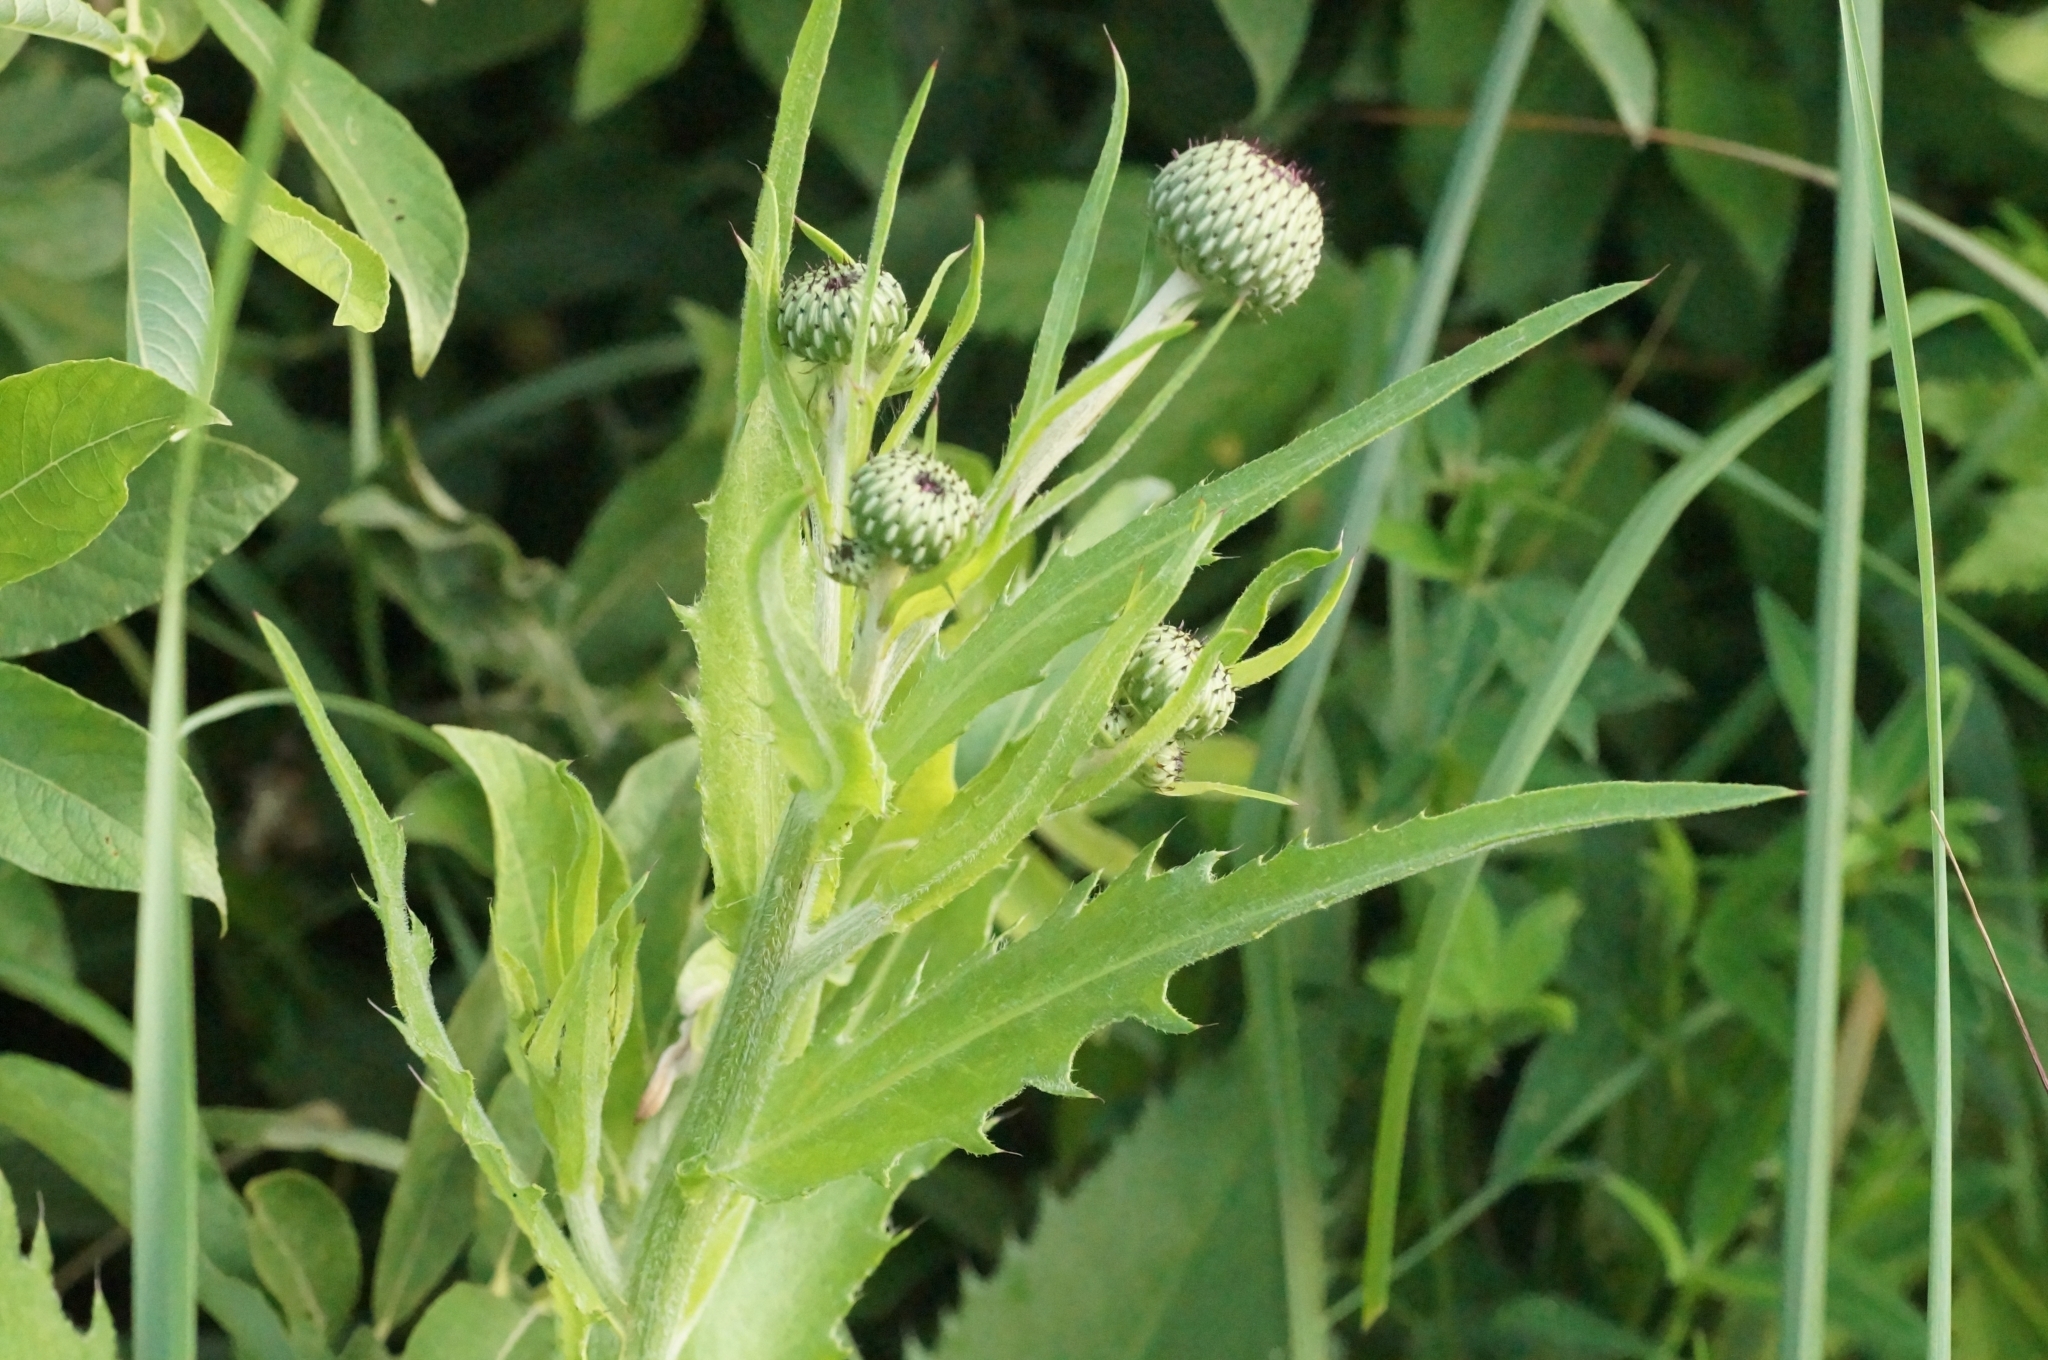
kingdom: Plantae
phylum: Tracheophyta
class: Magnoliopsida
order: Asterales
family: Asteraceae
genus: Cirsium
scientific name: Cirsium canum
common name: Queen anne's thistle
